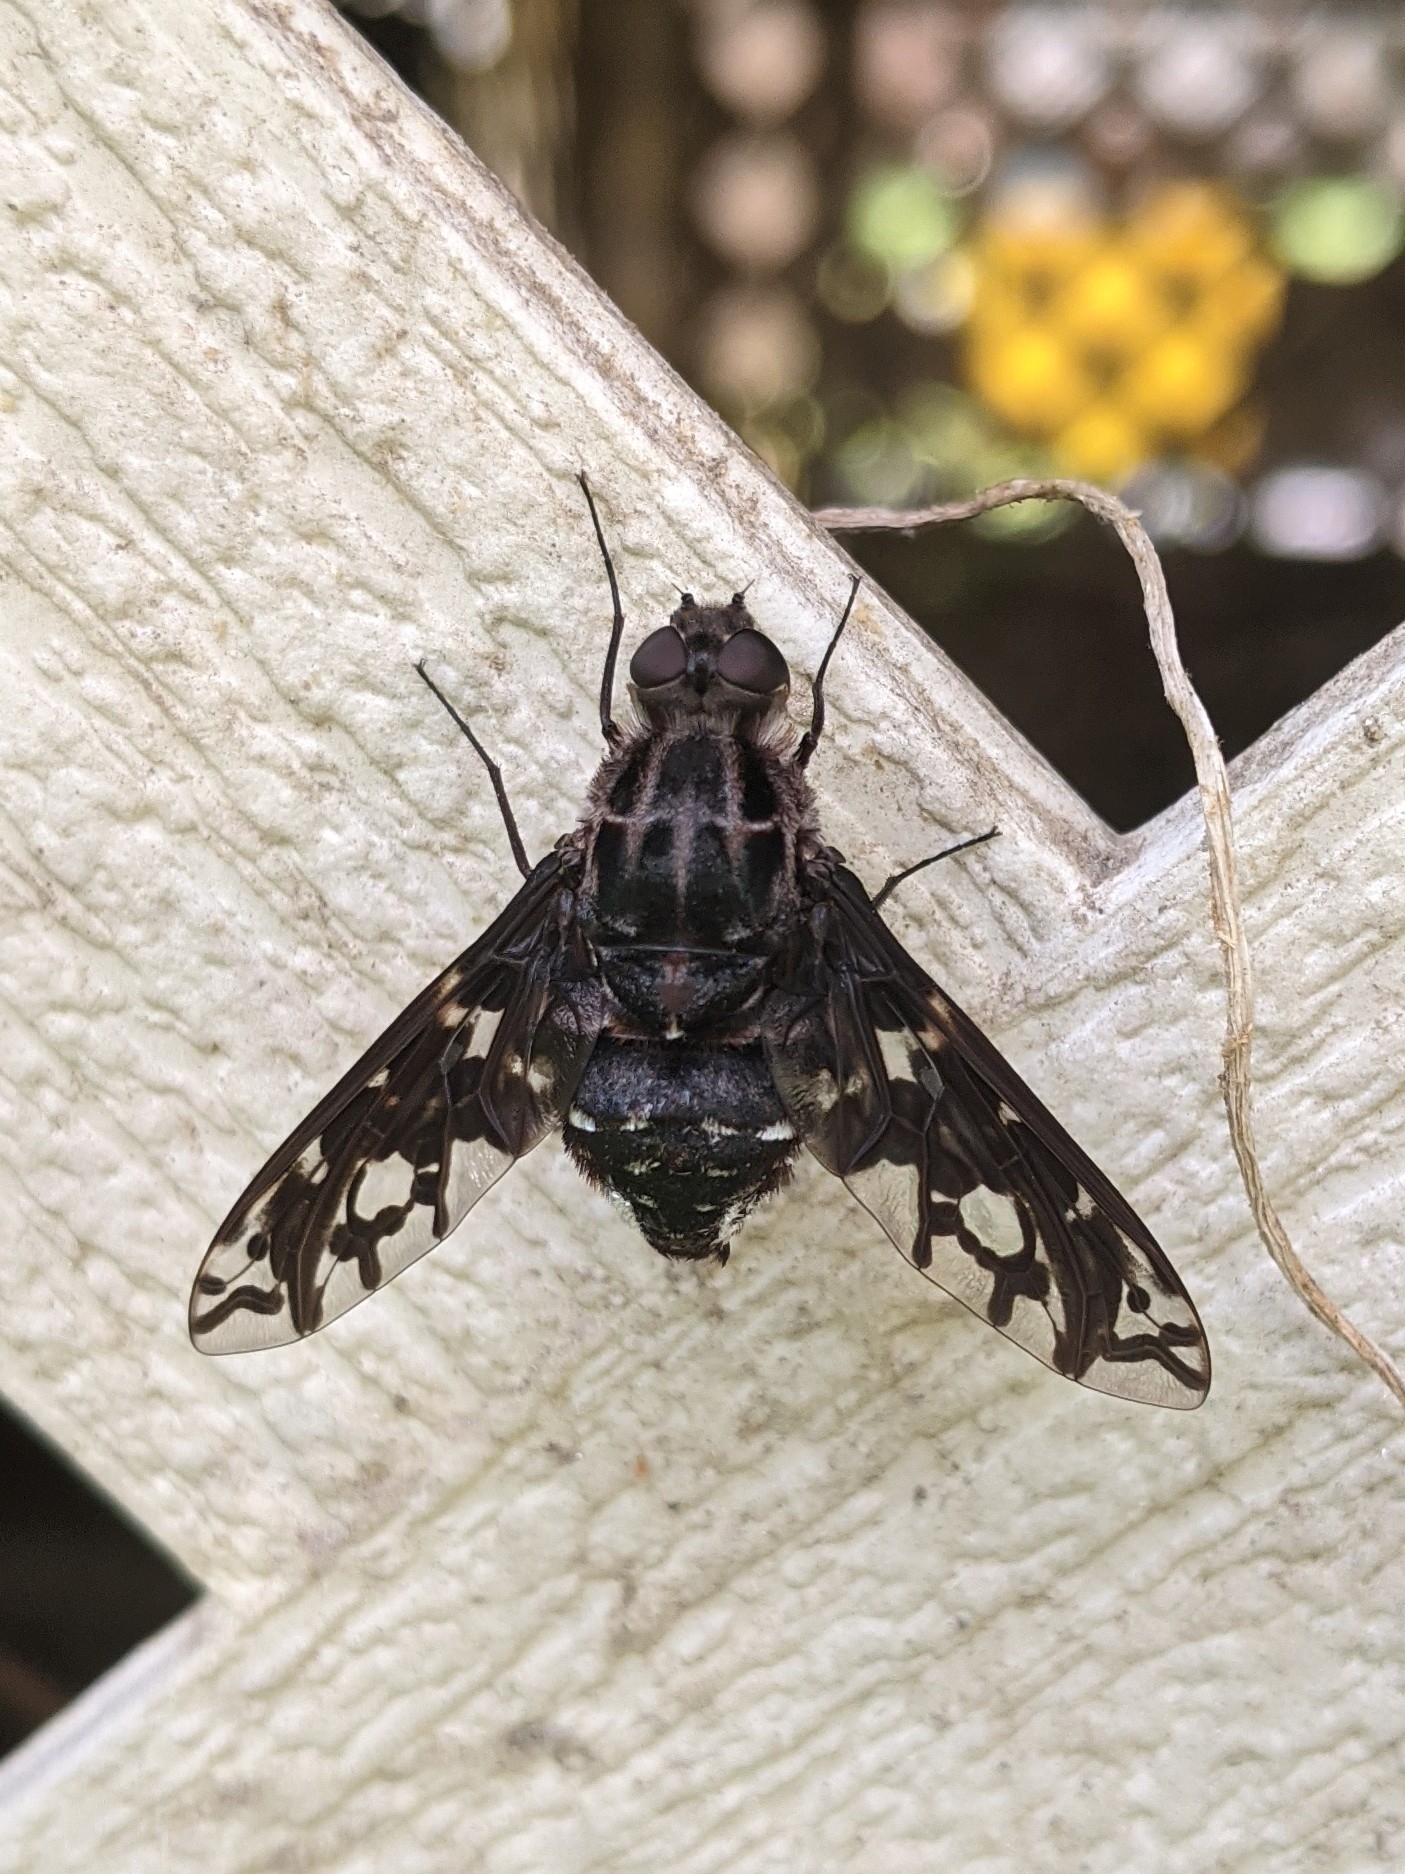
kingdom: Animalia
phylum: Arthropoda
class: Insecta
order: Diptera
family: Bombyliidae
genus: Xenox
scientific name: Xenox tigrinus
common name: Tiger bee fly
